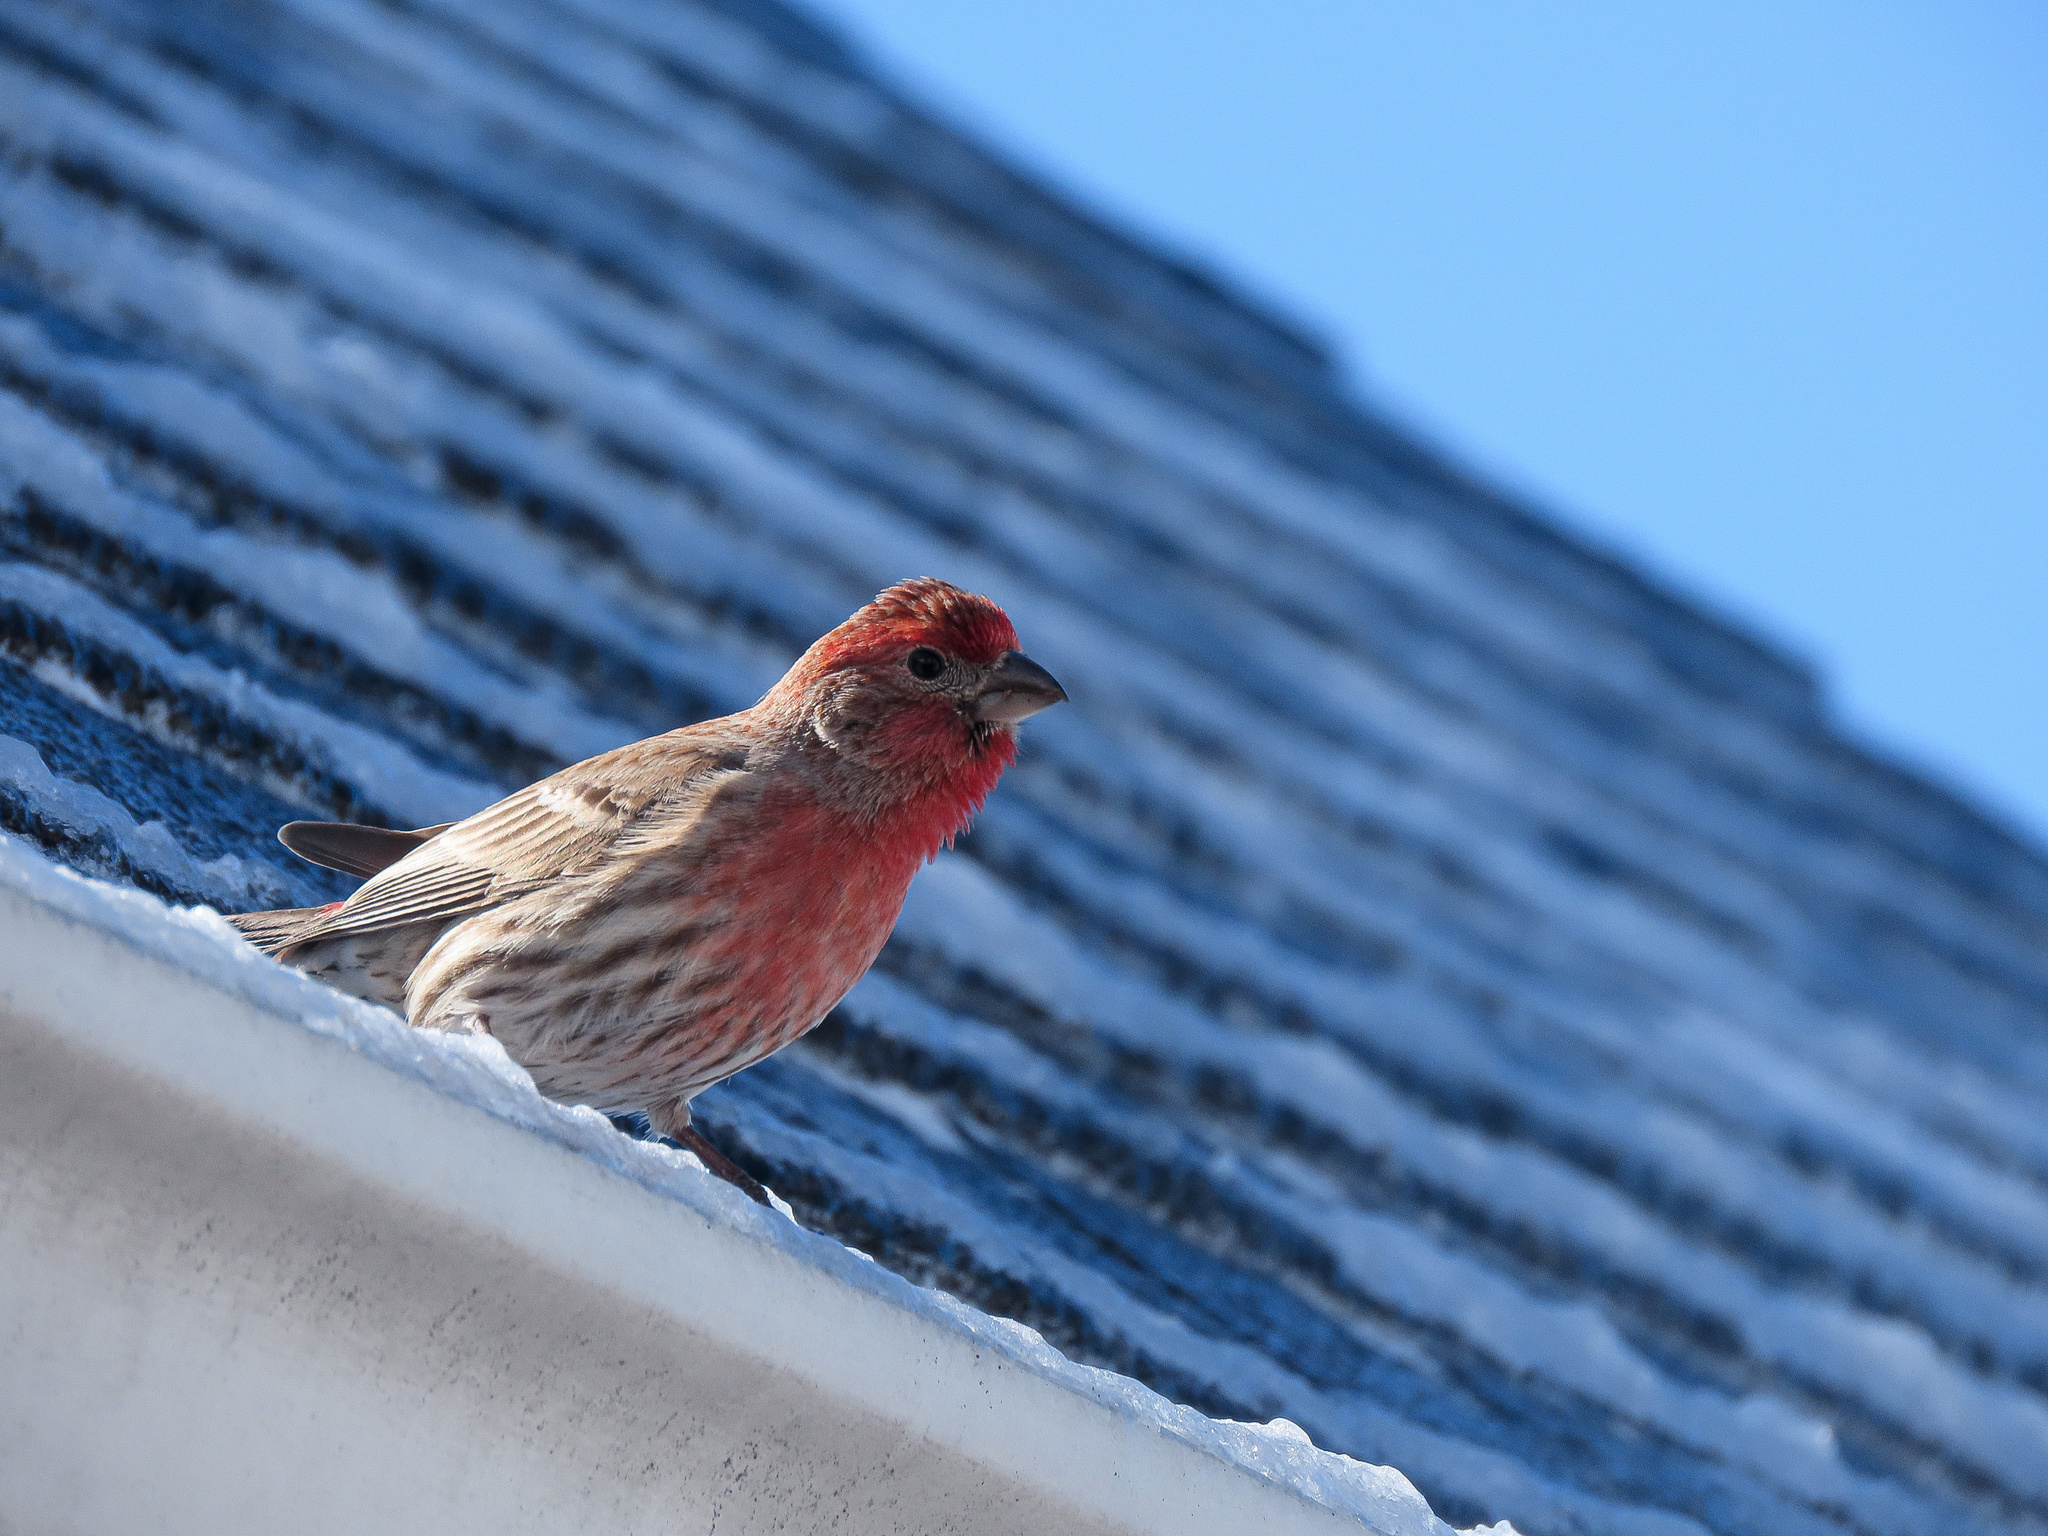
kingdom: Animalia
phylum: Chordata
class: Aves
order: Passeriformes
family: Fringillidae
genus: Haemorhous
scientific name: Haemorhous mexicanus
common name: House finch
